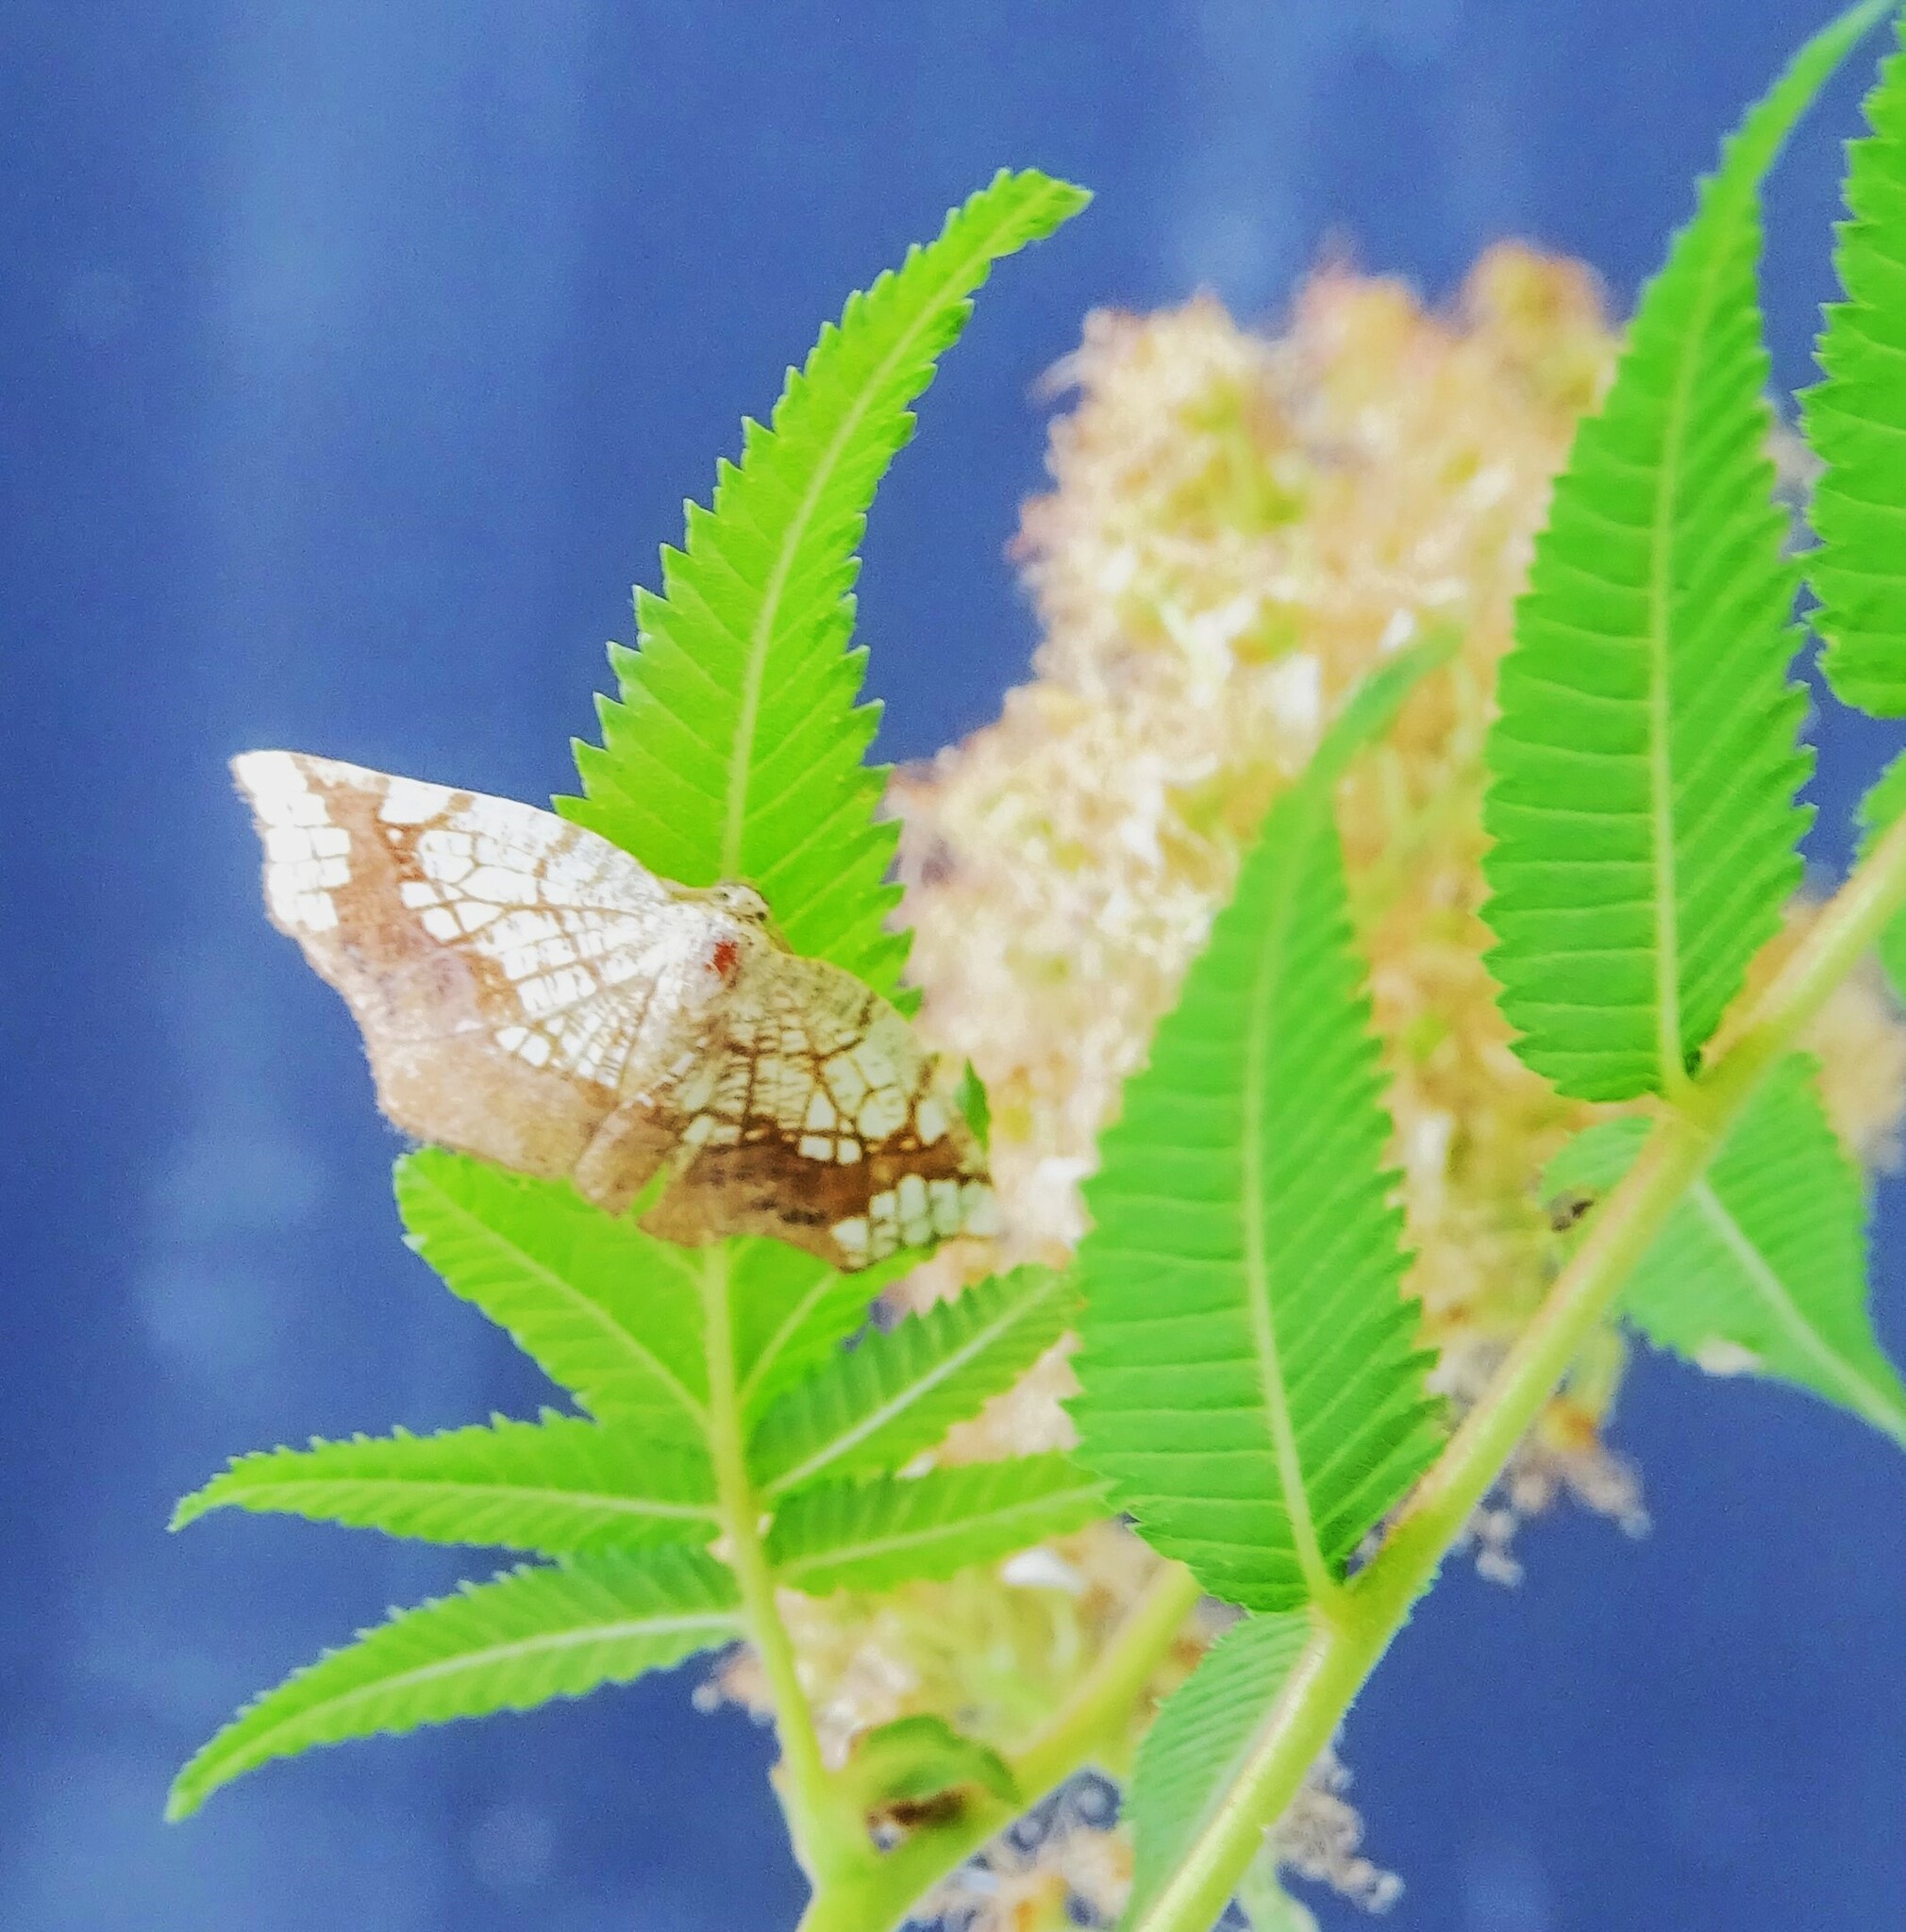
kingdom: Animalia
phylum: Arthropoda
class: Insecta
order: Lepidoptera
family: Geometridae
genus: Nematocampa
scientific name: Nematocampa resistaria
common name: Horned spanworm moth
